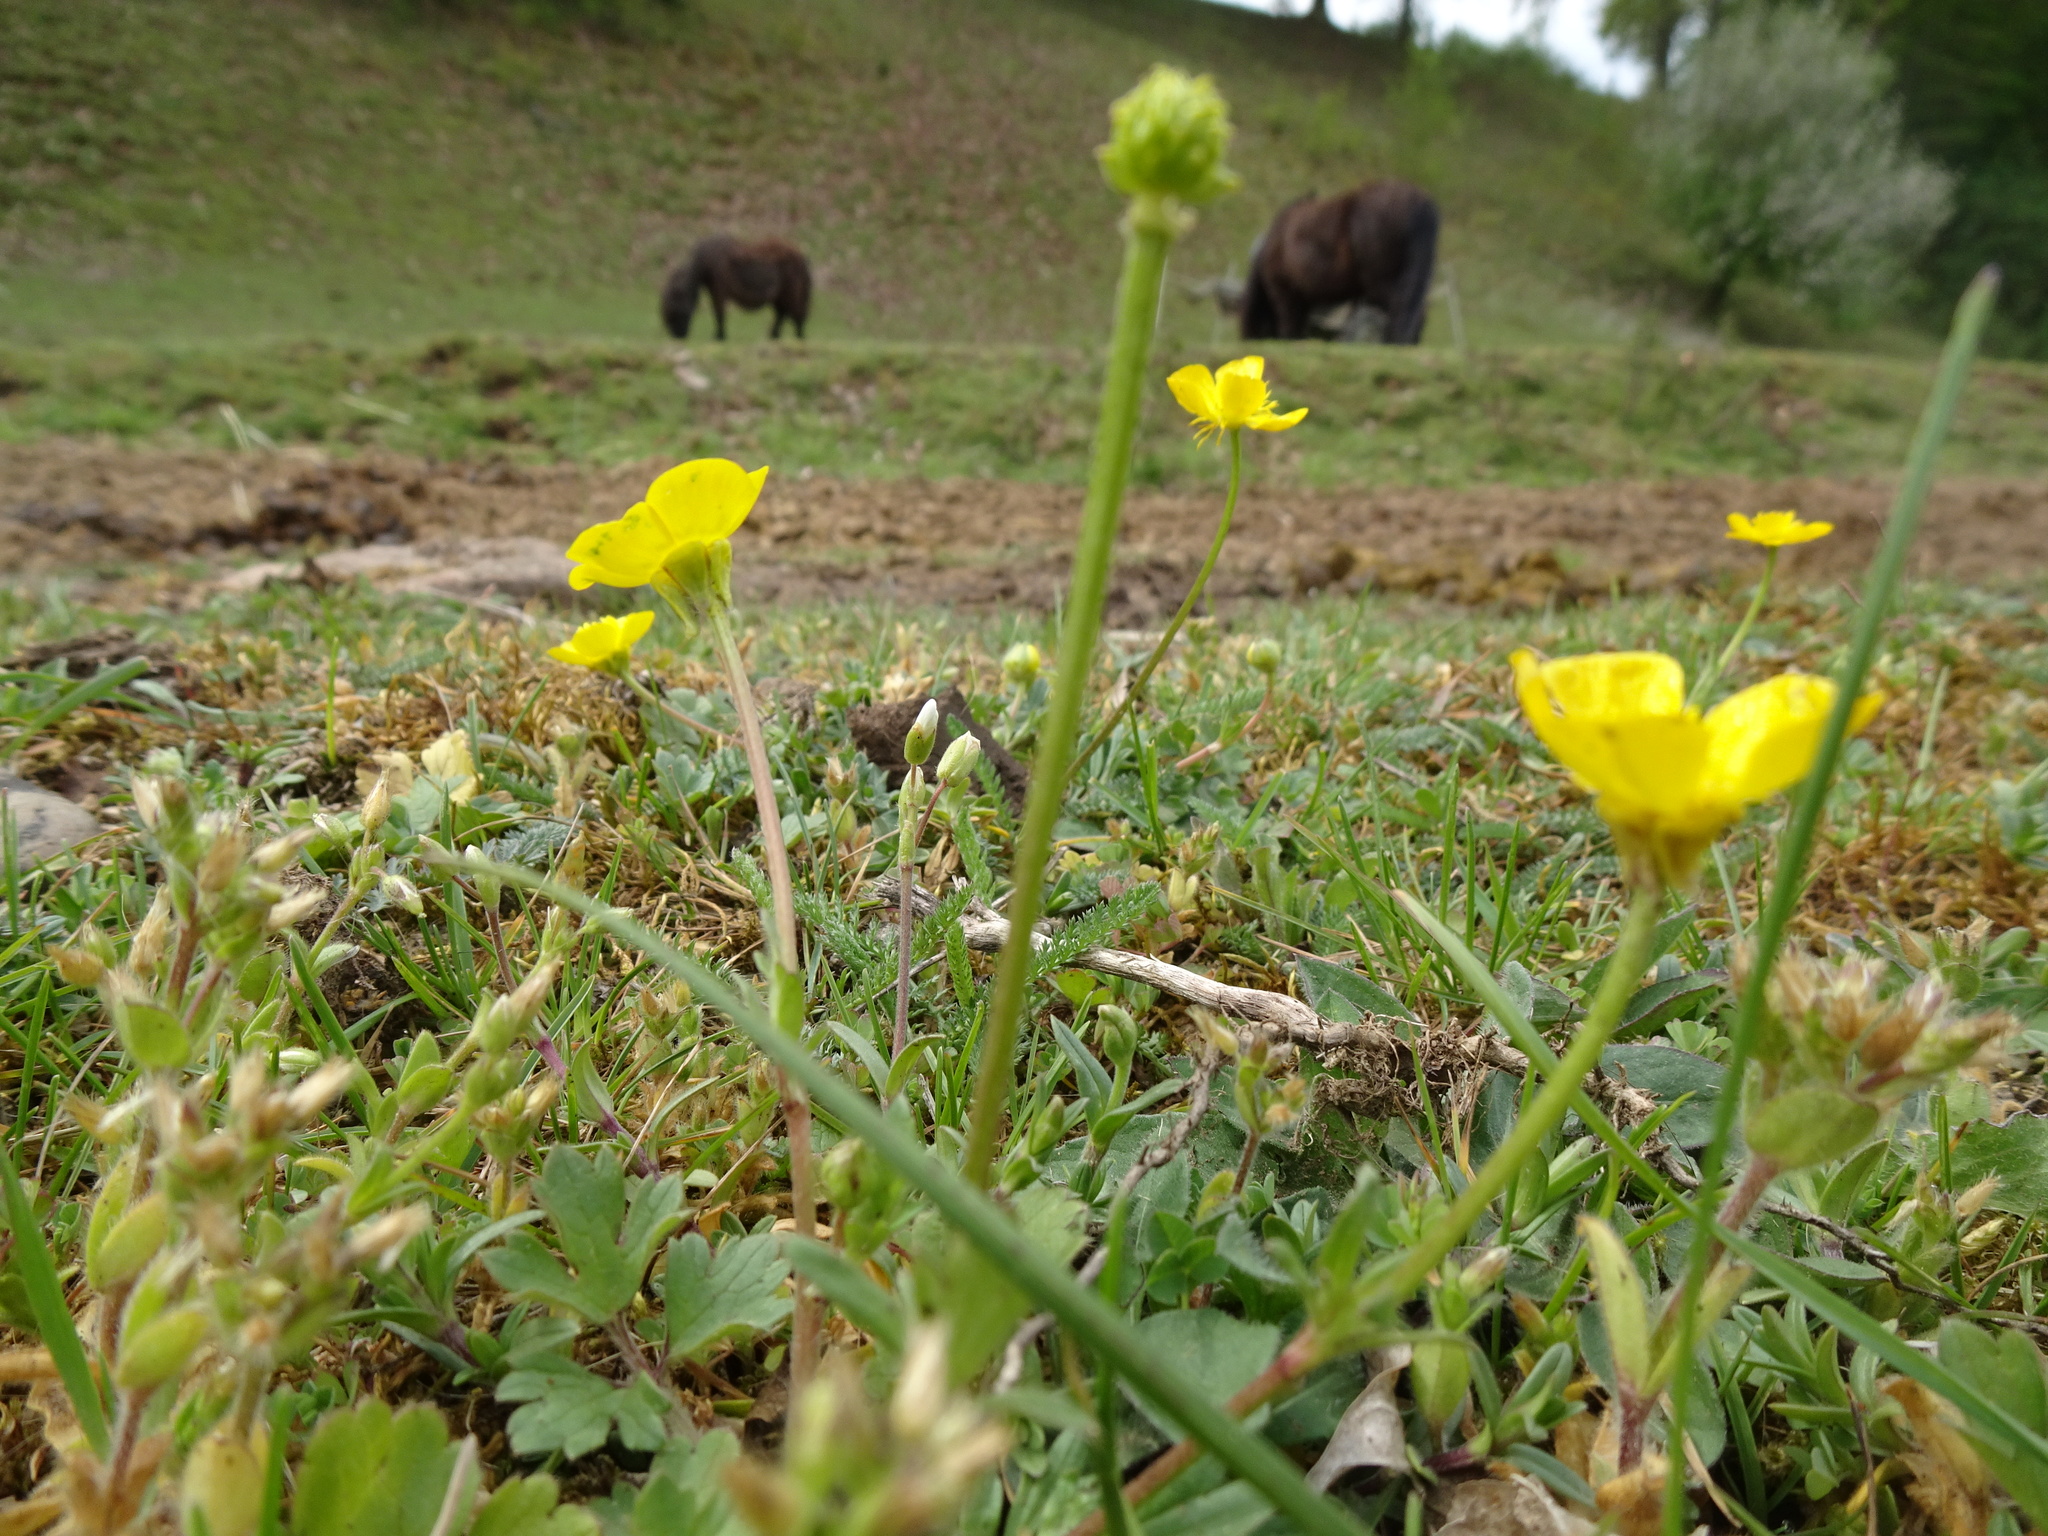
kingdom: Plantae
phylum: Tracheophyta
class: Magnoliopsida
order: Ranunculales
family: Ranunculaceae
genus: Ranunculus
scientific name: Ranunculus bulbosus
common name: Bulbous buttercup
